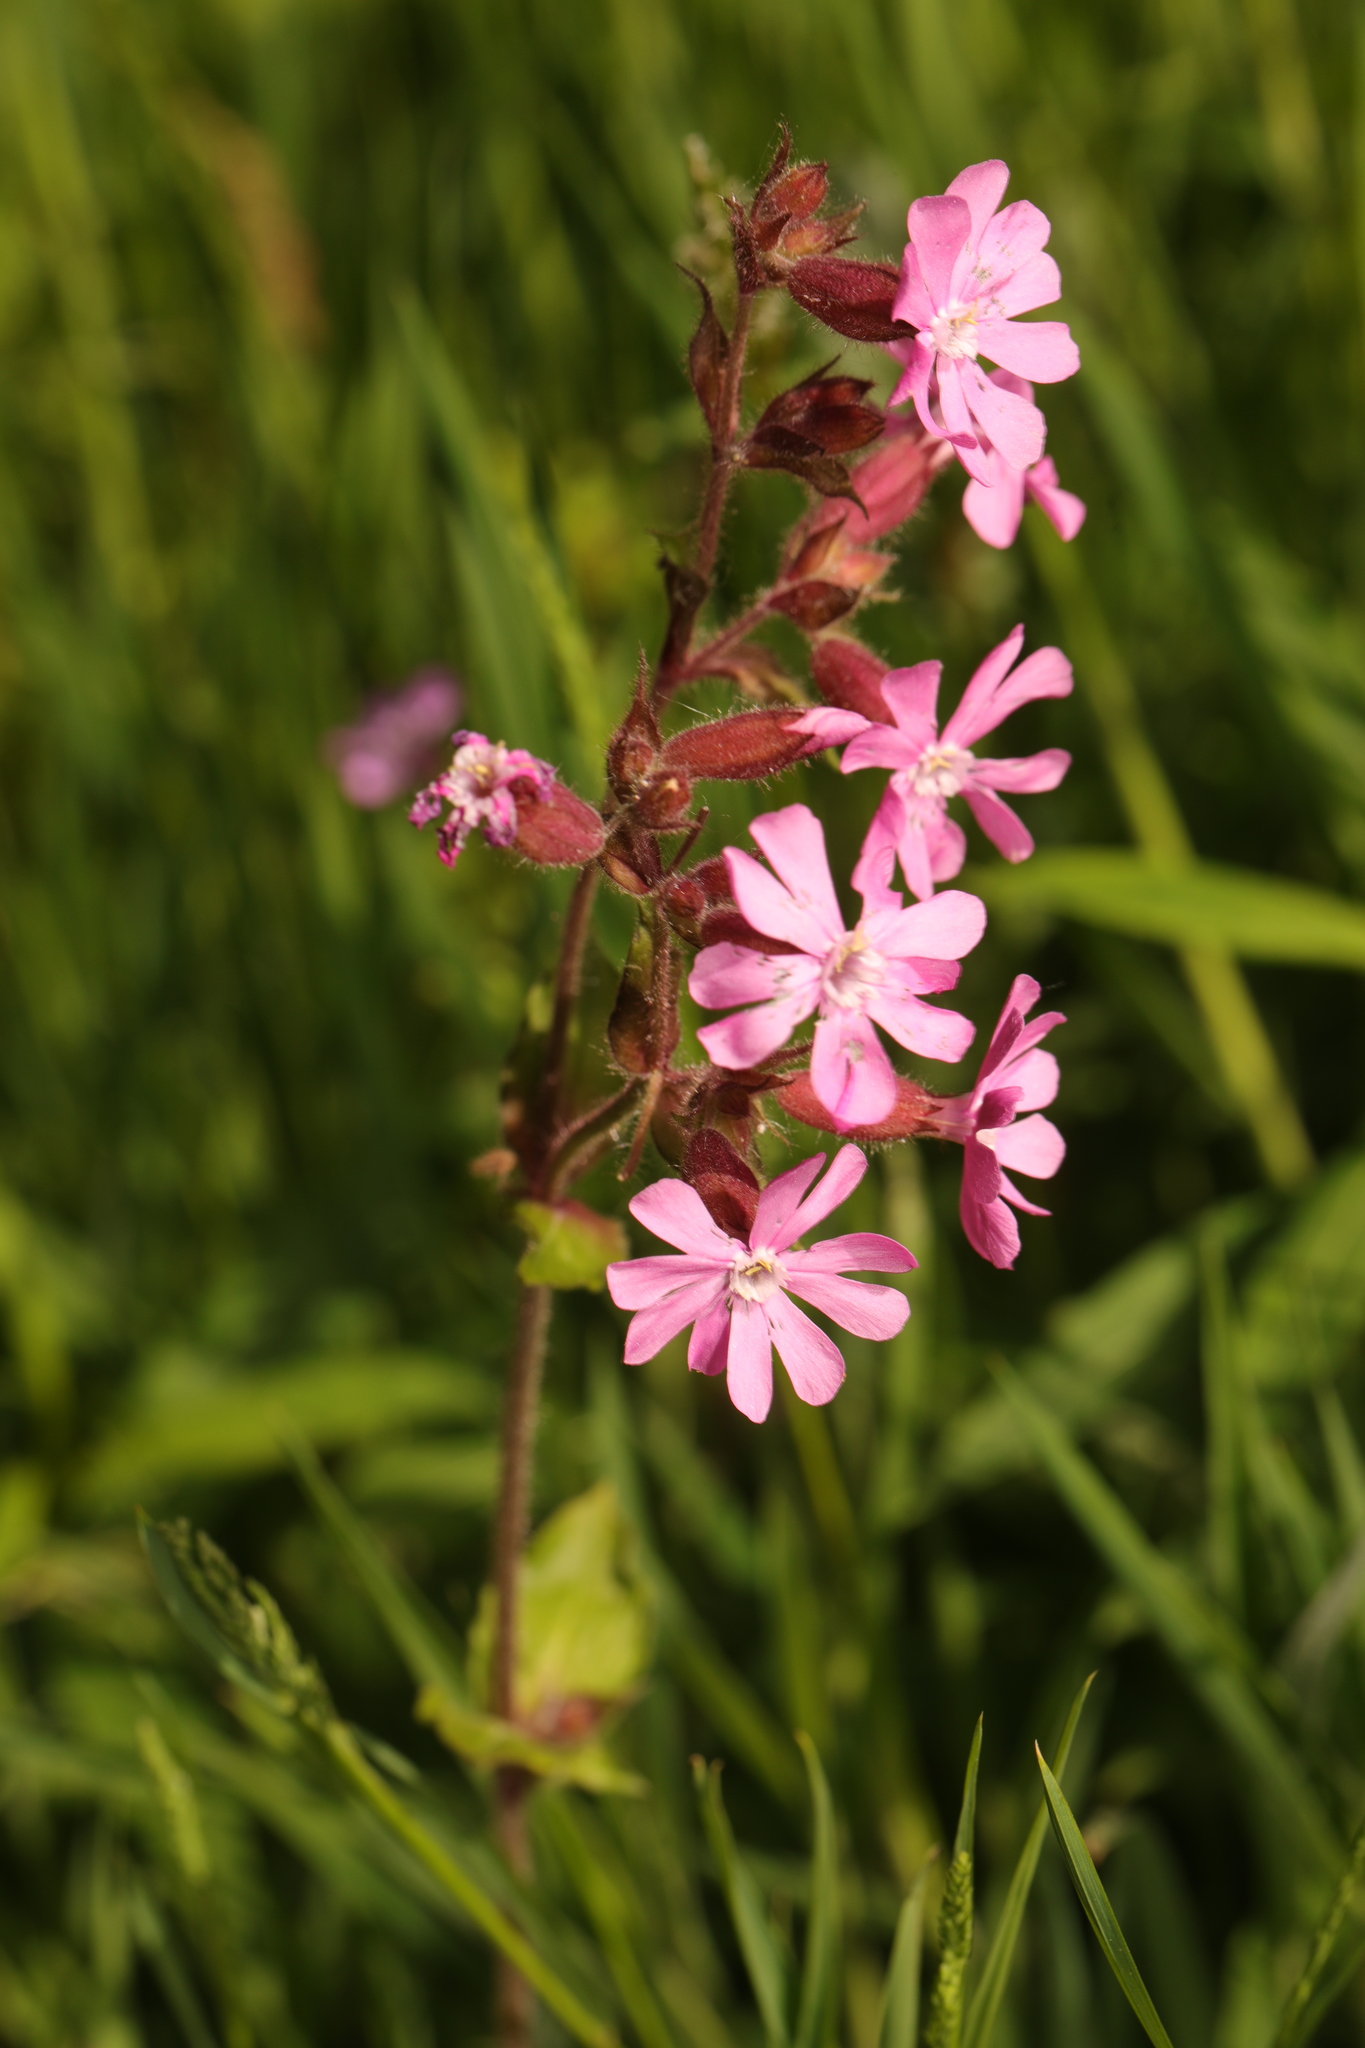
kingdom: Plantae
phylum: Tracheophyta
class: Magnoliopsida
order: Caryophyllales
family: Caryophyllaceae
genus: Silene
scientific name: Silene dioica
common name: Red campion
